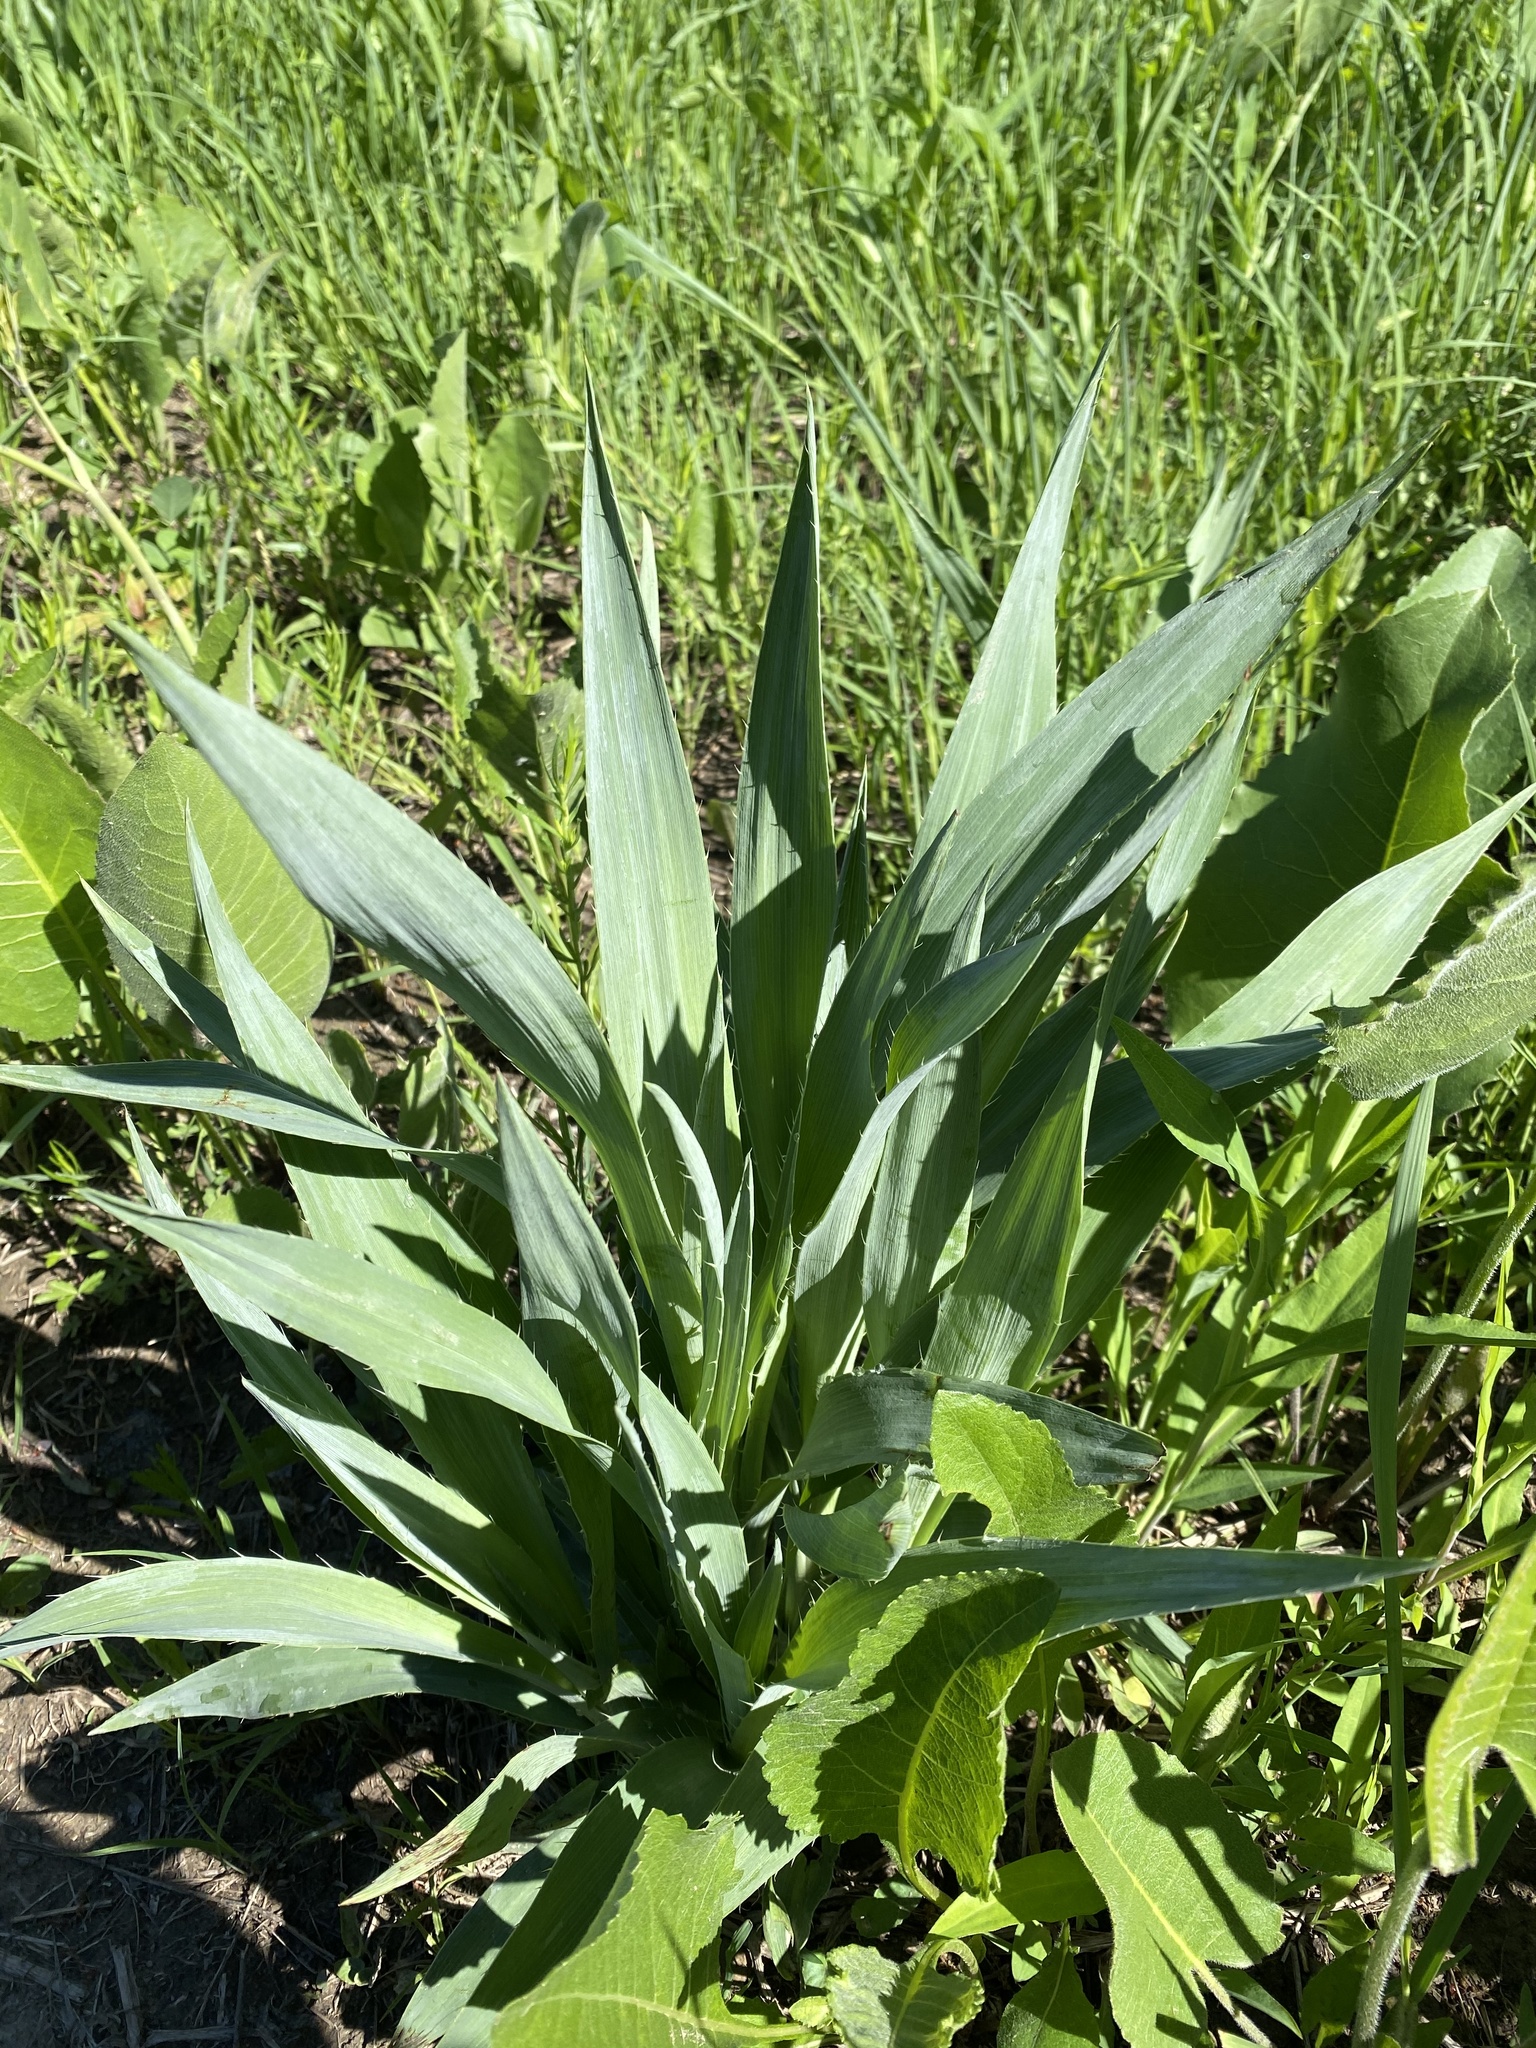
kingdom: Plantae
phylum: Tracheophyta
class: Magnoliopsida
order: Apiales
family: Apiaceae
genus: Eryngium
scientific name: Eryngium yuccifolium
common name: Button eryngo
